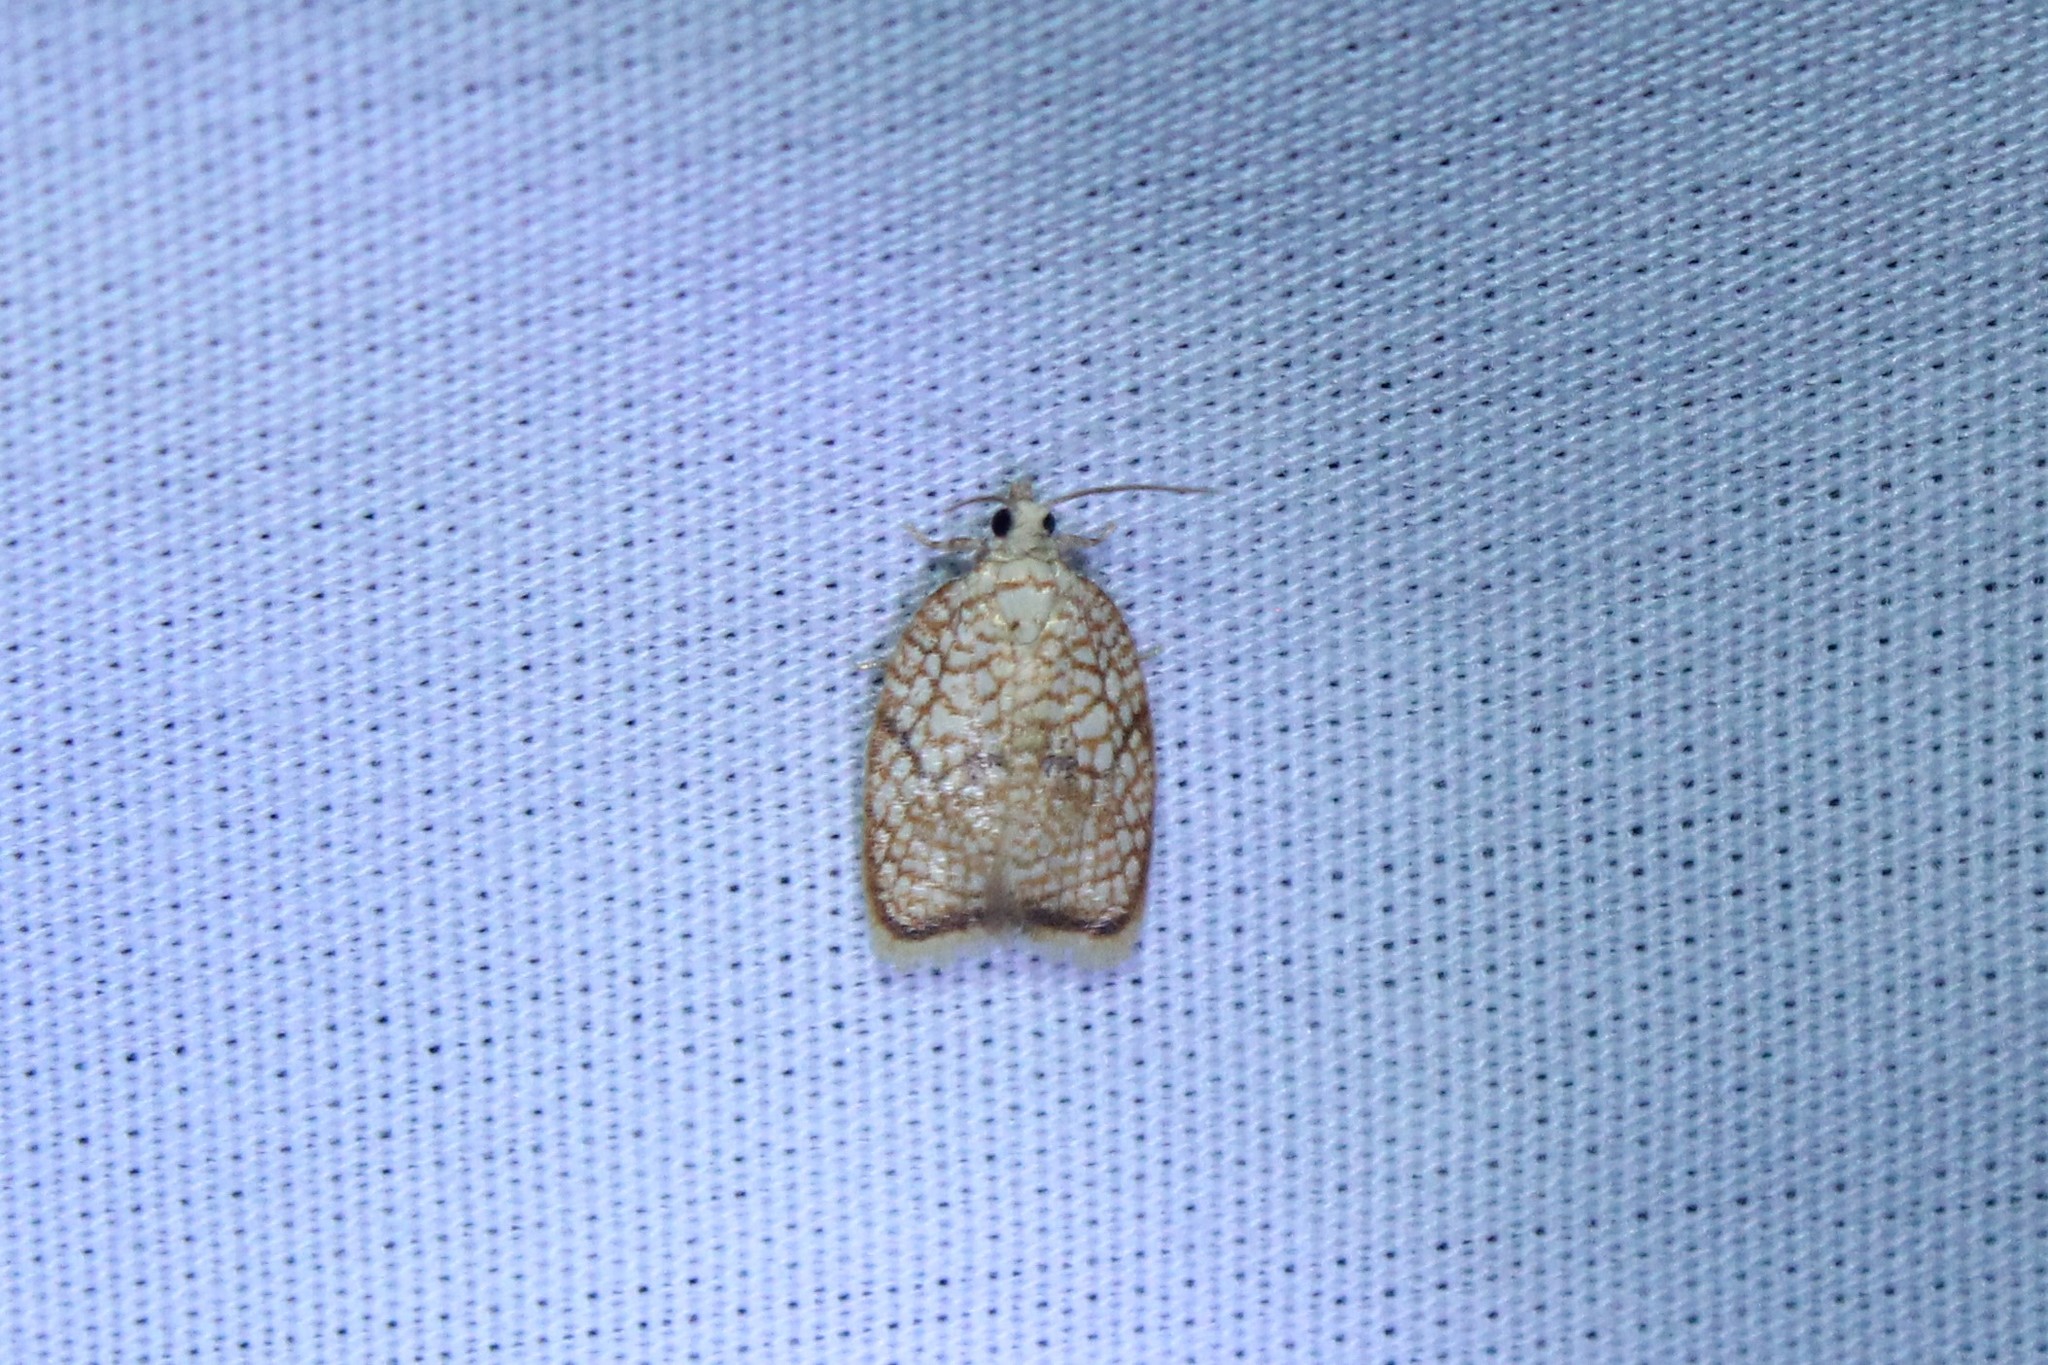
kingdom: Animalia
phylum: Arthropoda
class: Insecta
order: Lepidoptera
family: Tortricidae
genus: Acleris
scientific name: Acleris forsskaleana
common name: Maple button
